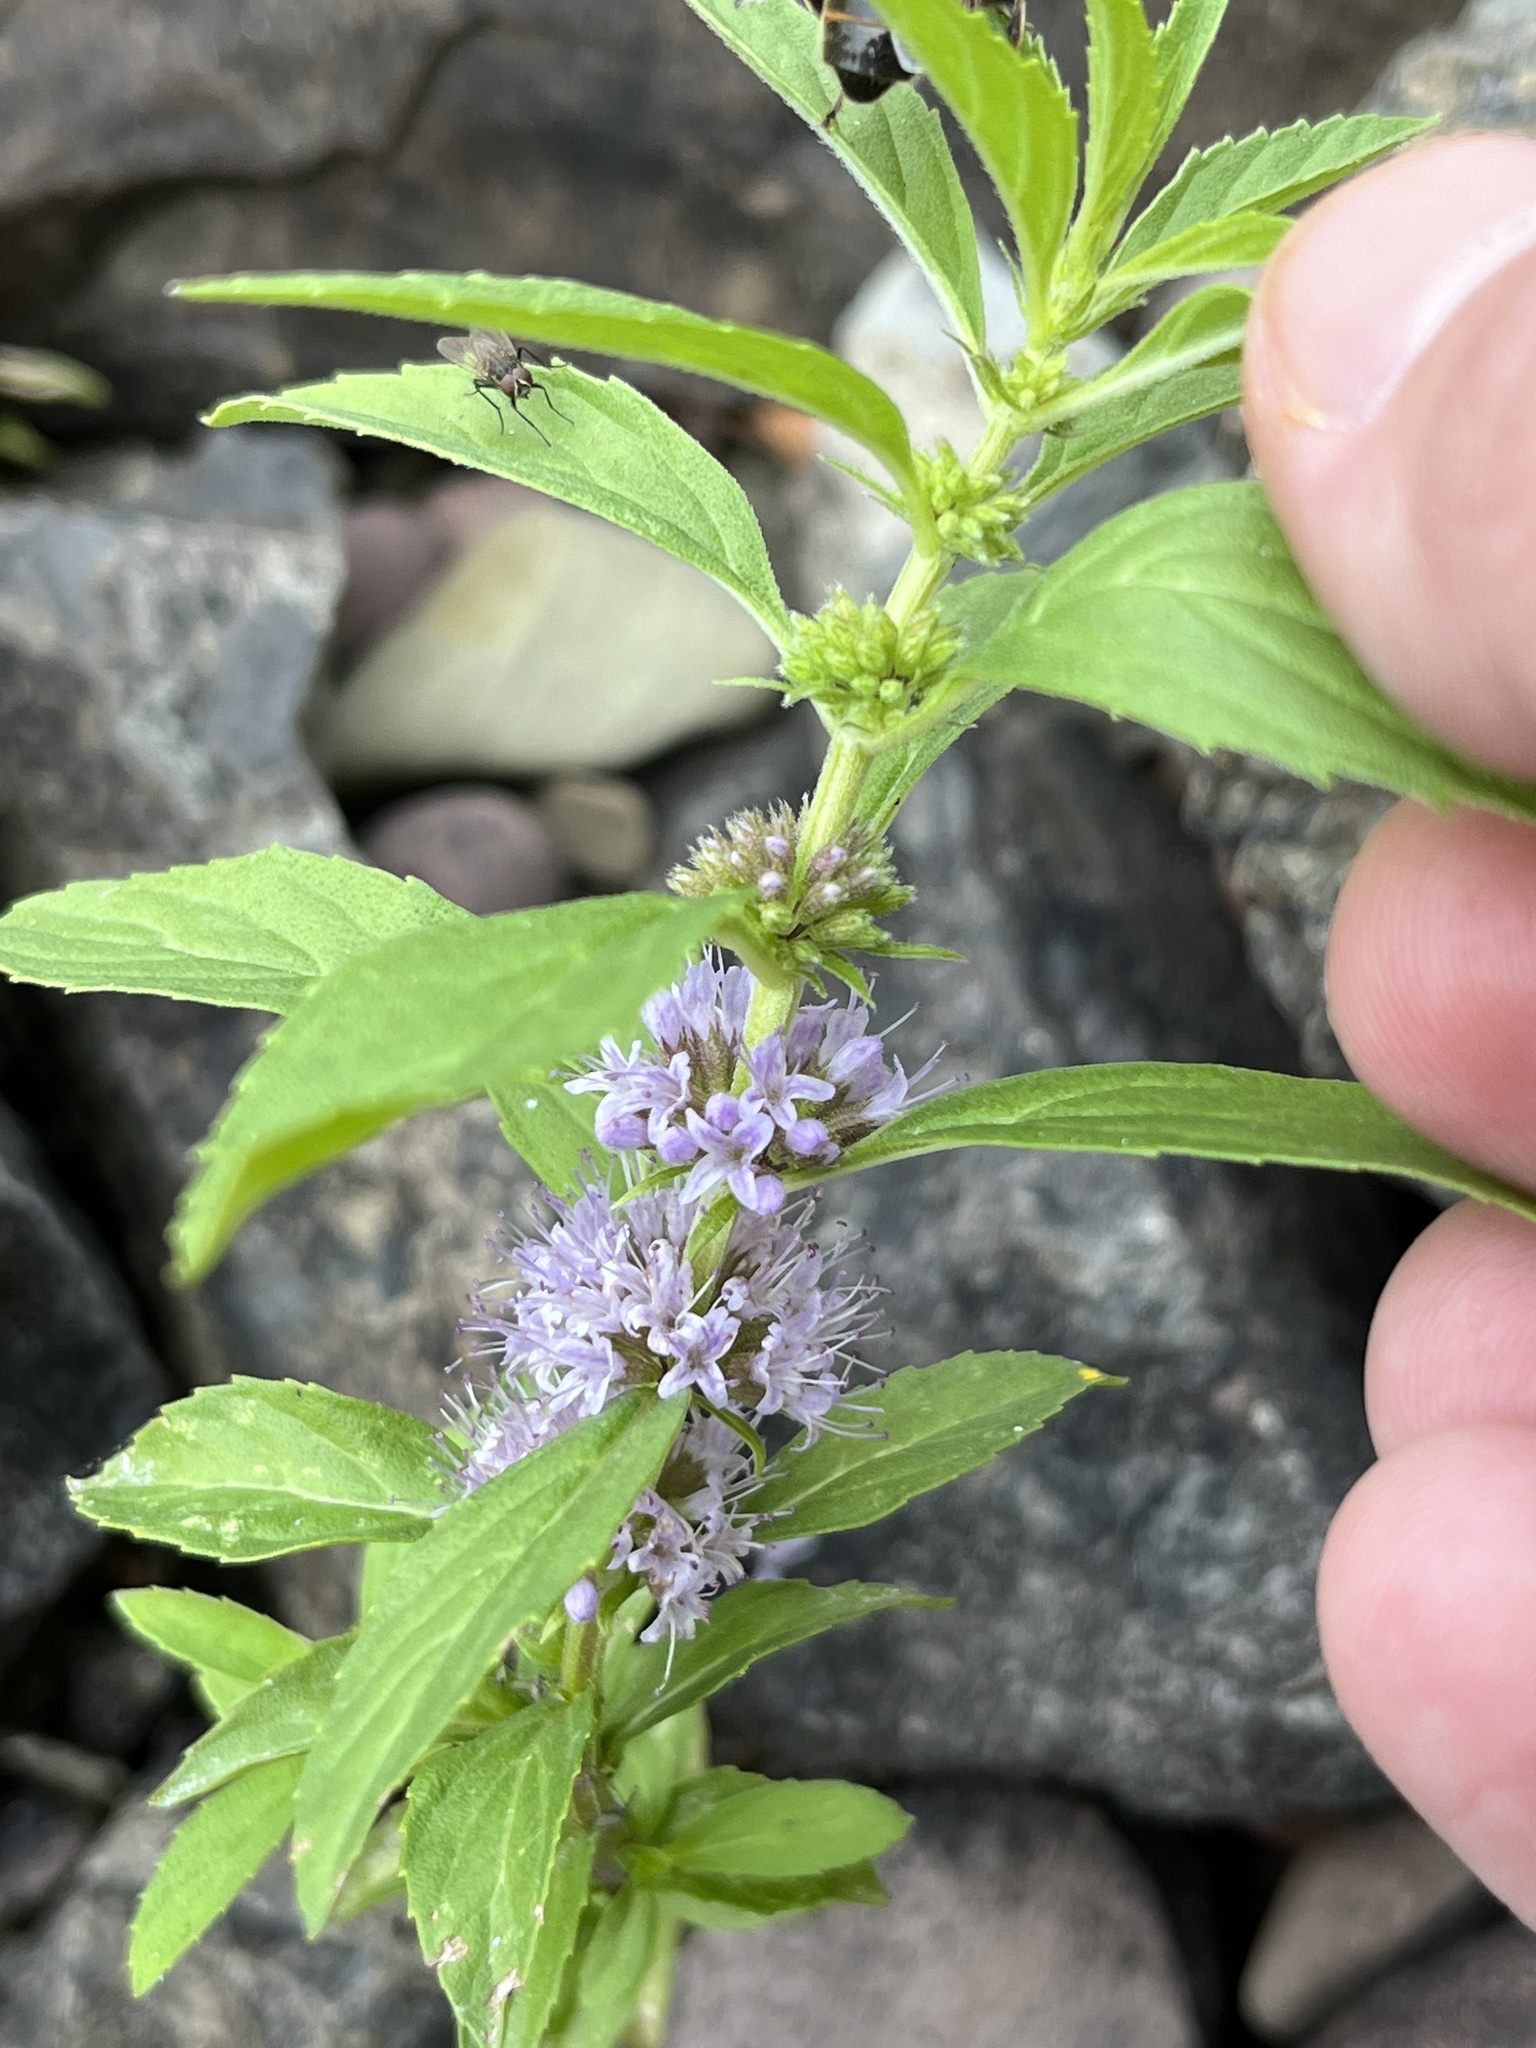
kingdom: Plantae
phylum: Tracheophyta
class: Magnoliopsida
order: Lamiales
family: Lamiaceae
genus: Mentha
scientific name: Mentha canadensis
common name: American corn mint
